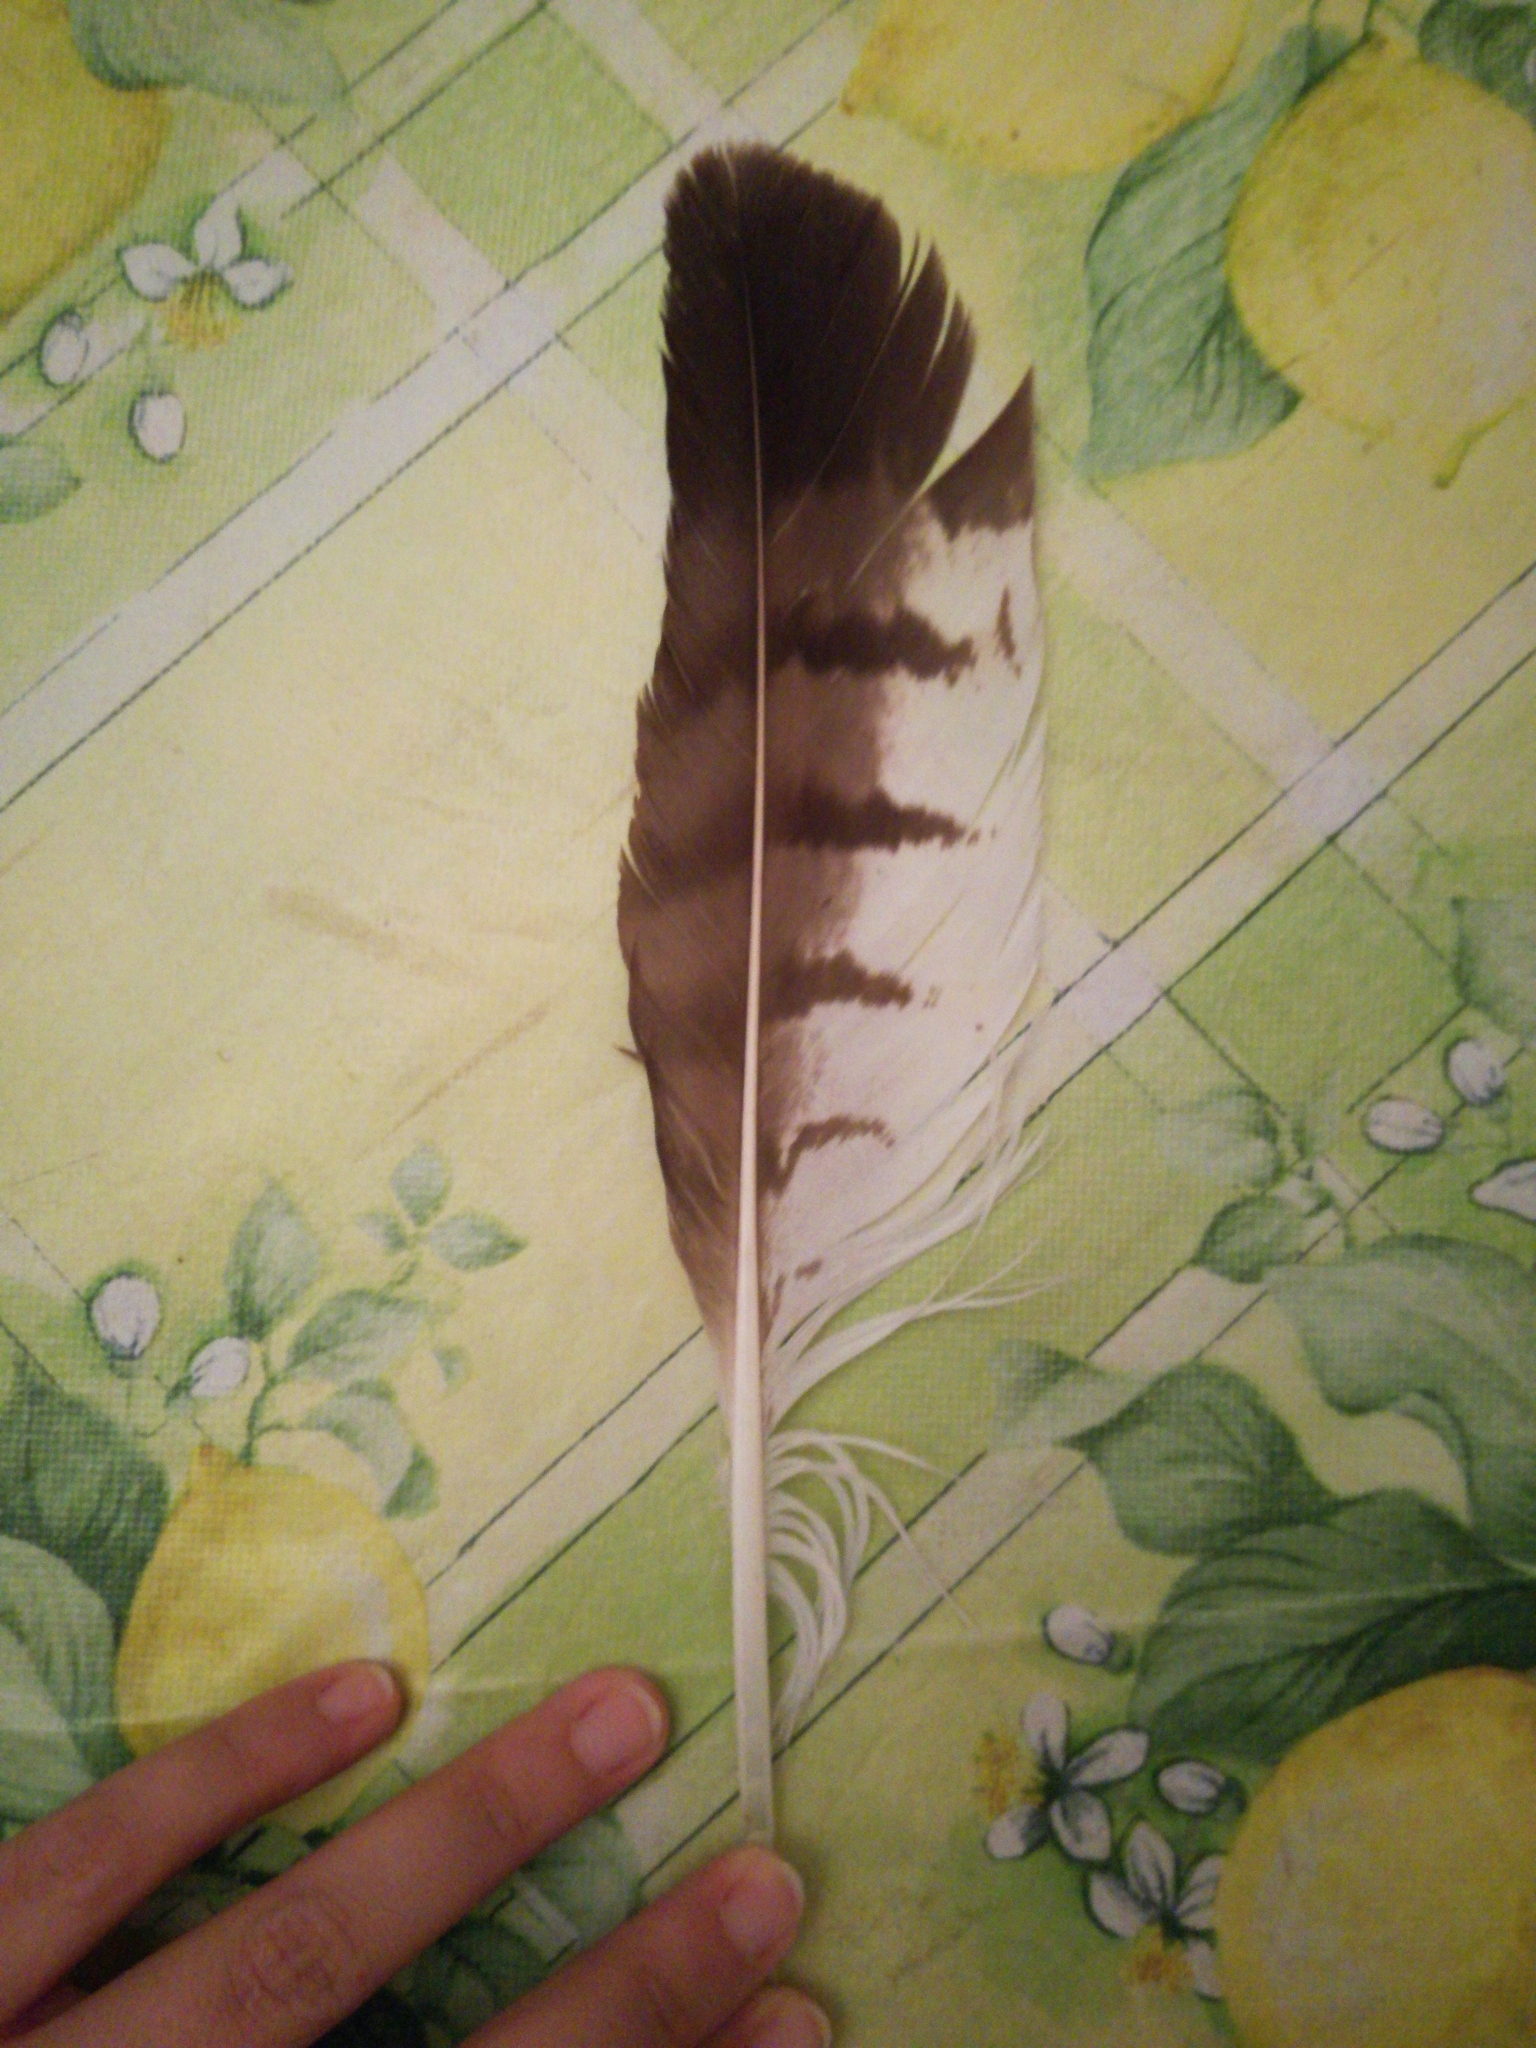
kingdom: Animalia
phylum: Chordata
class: Aves
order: Accipitriformes
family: Accipitridae
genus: Buteo
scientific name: Buteo buteo
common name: Common buzzard
